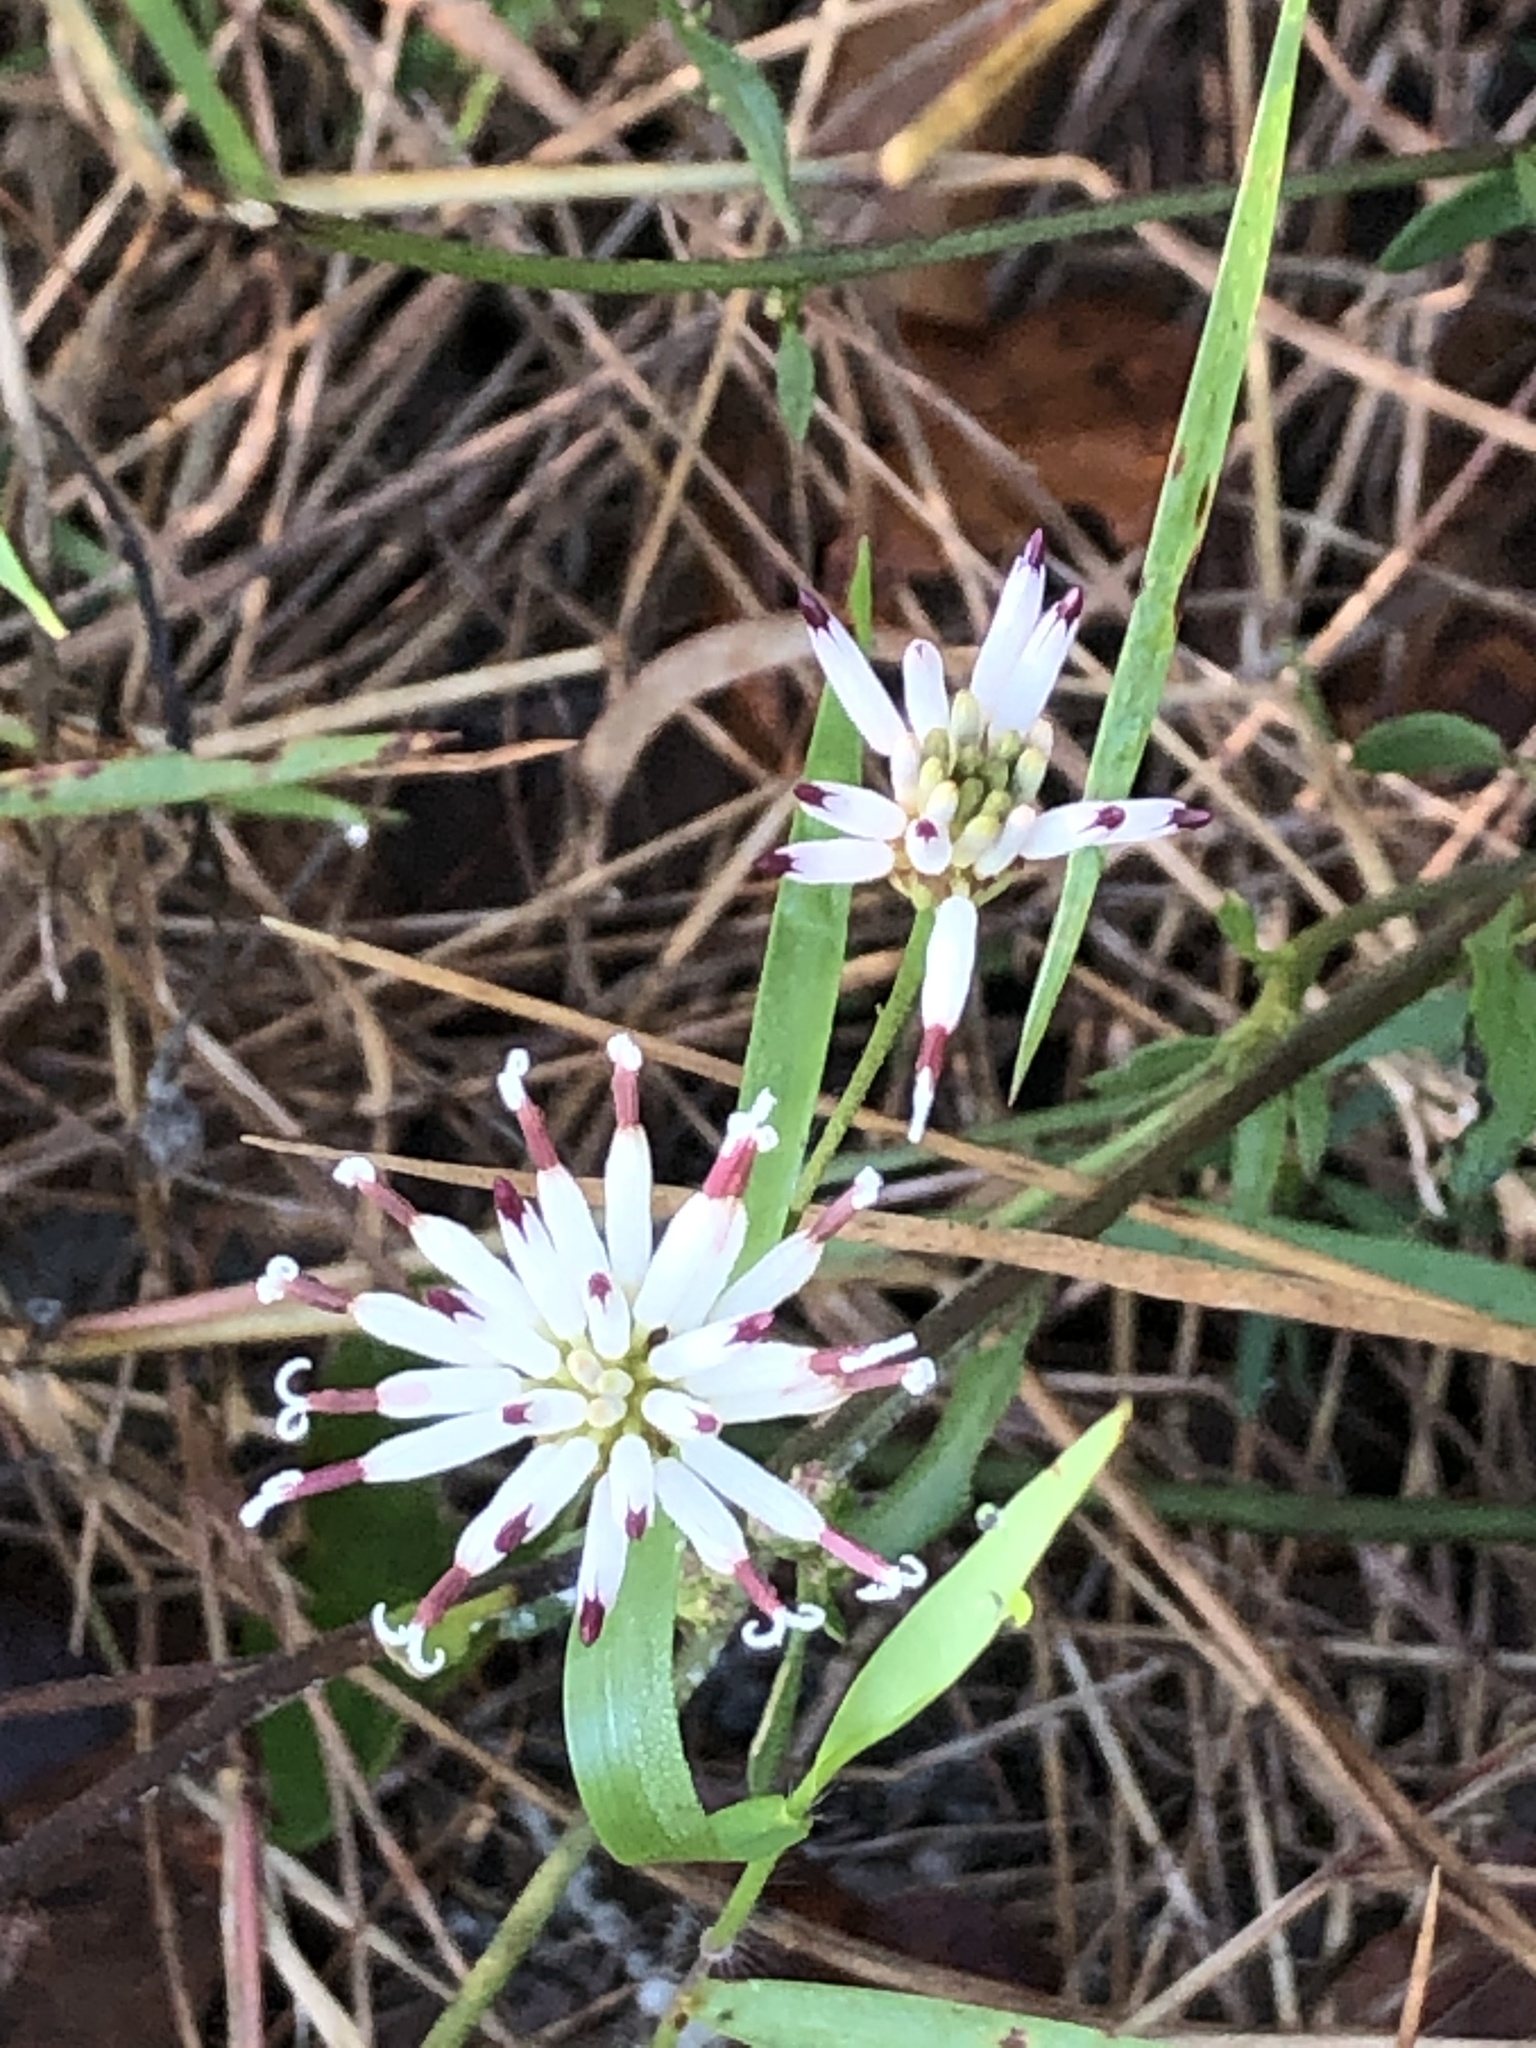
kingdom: Plantae
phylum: Tracheophyta
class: Magnoliopsida
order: Asterales
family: Asteraceae
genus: Palafoxia
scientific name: Palafoxia feayi
